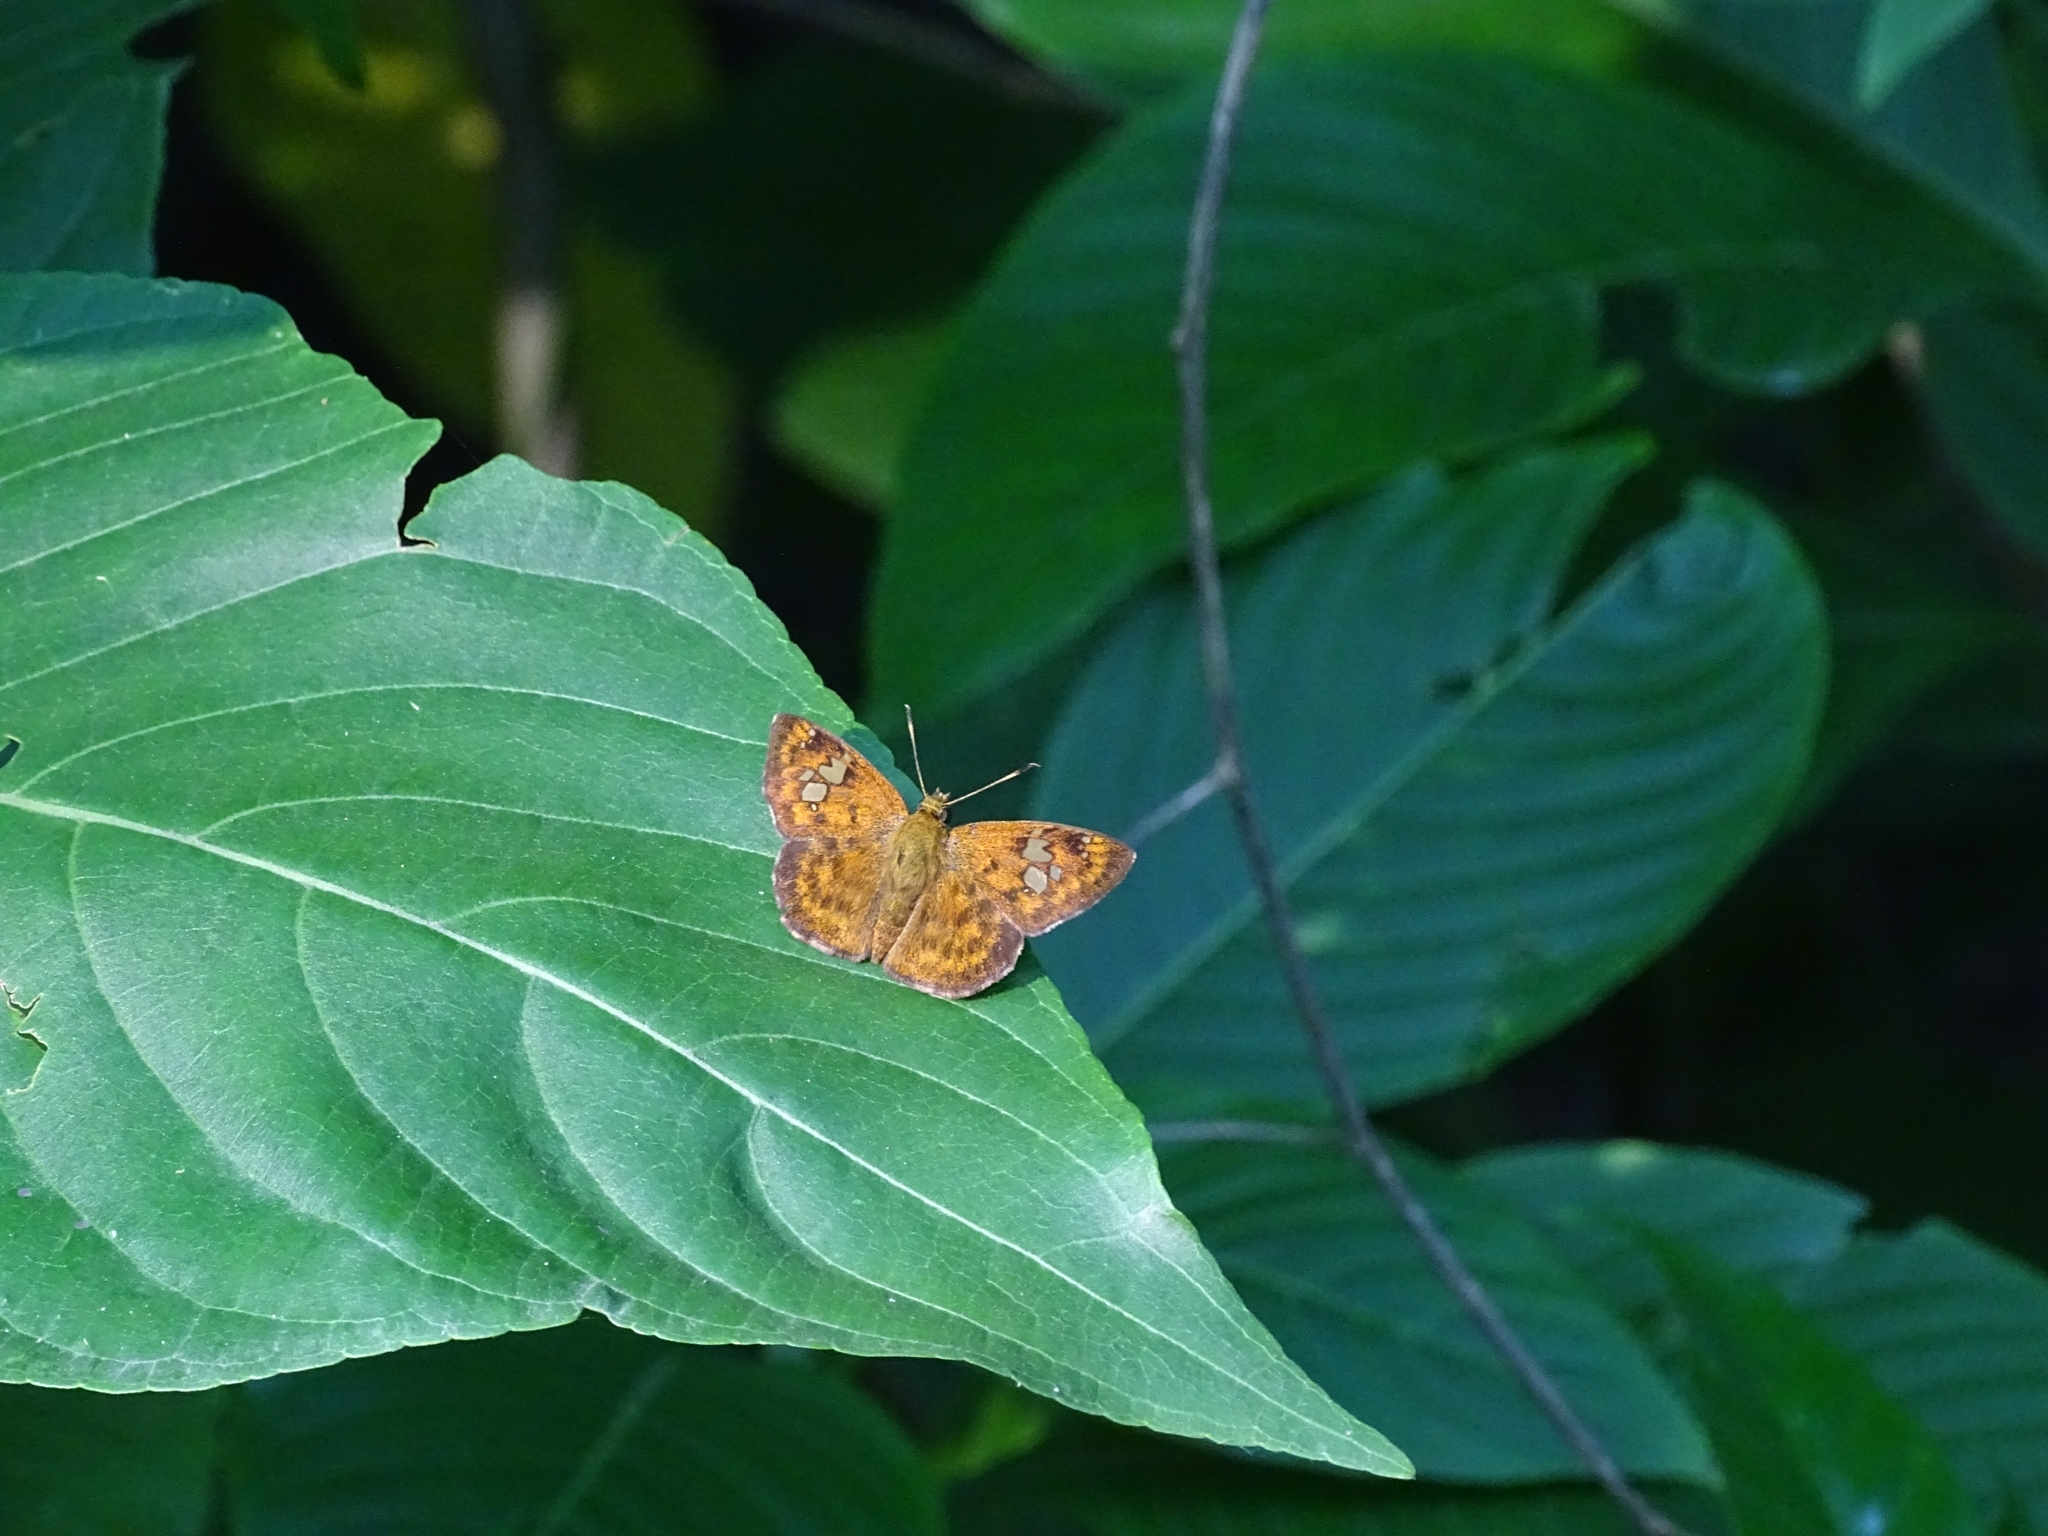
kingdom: Animalia
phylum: Arthropoda
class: Insecta
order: Lepidoptera
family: Hesperiidae
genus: Pseudocoladenia
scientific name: Pseudocoladenia dan
